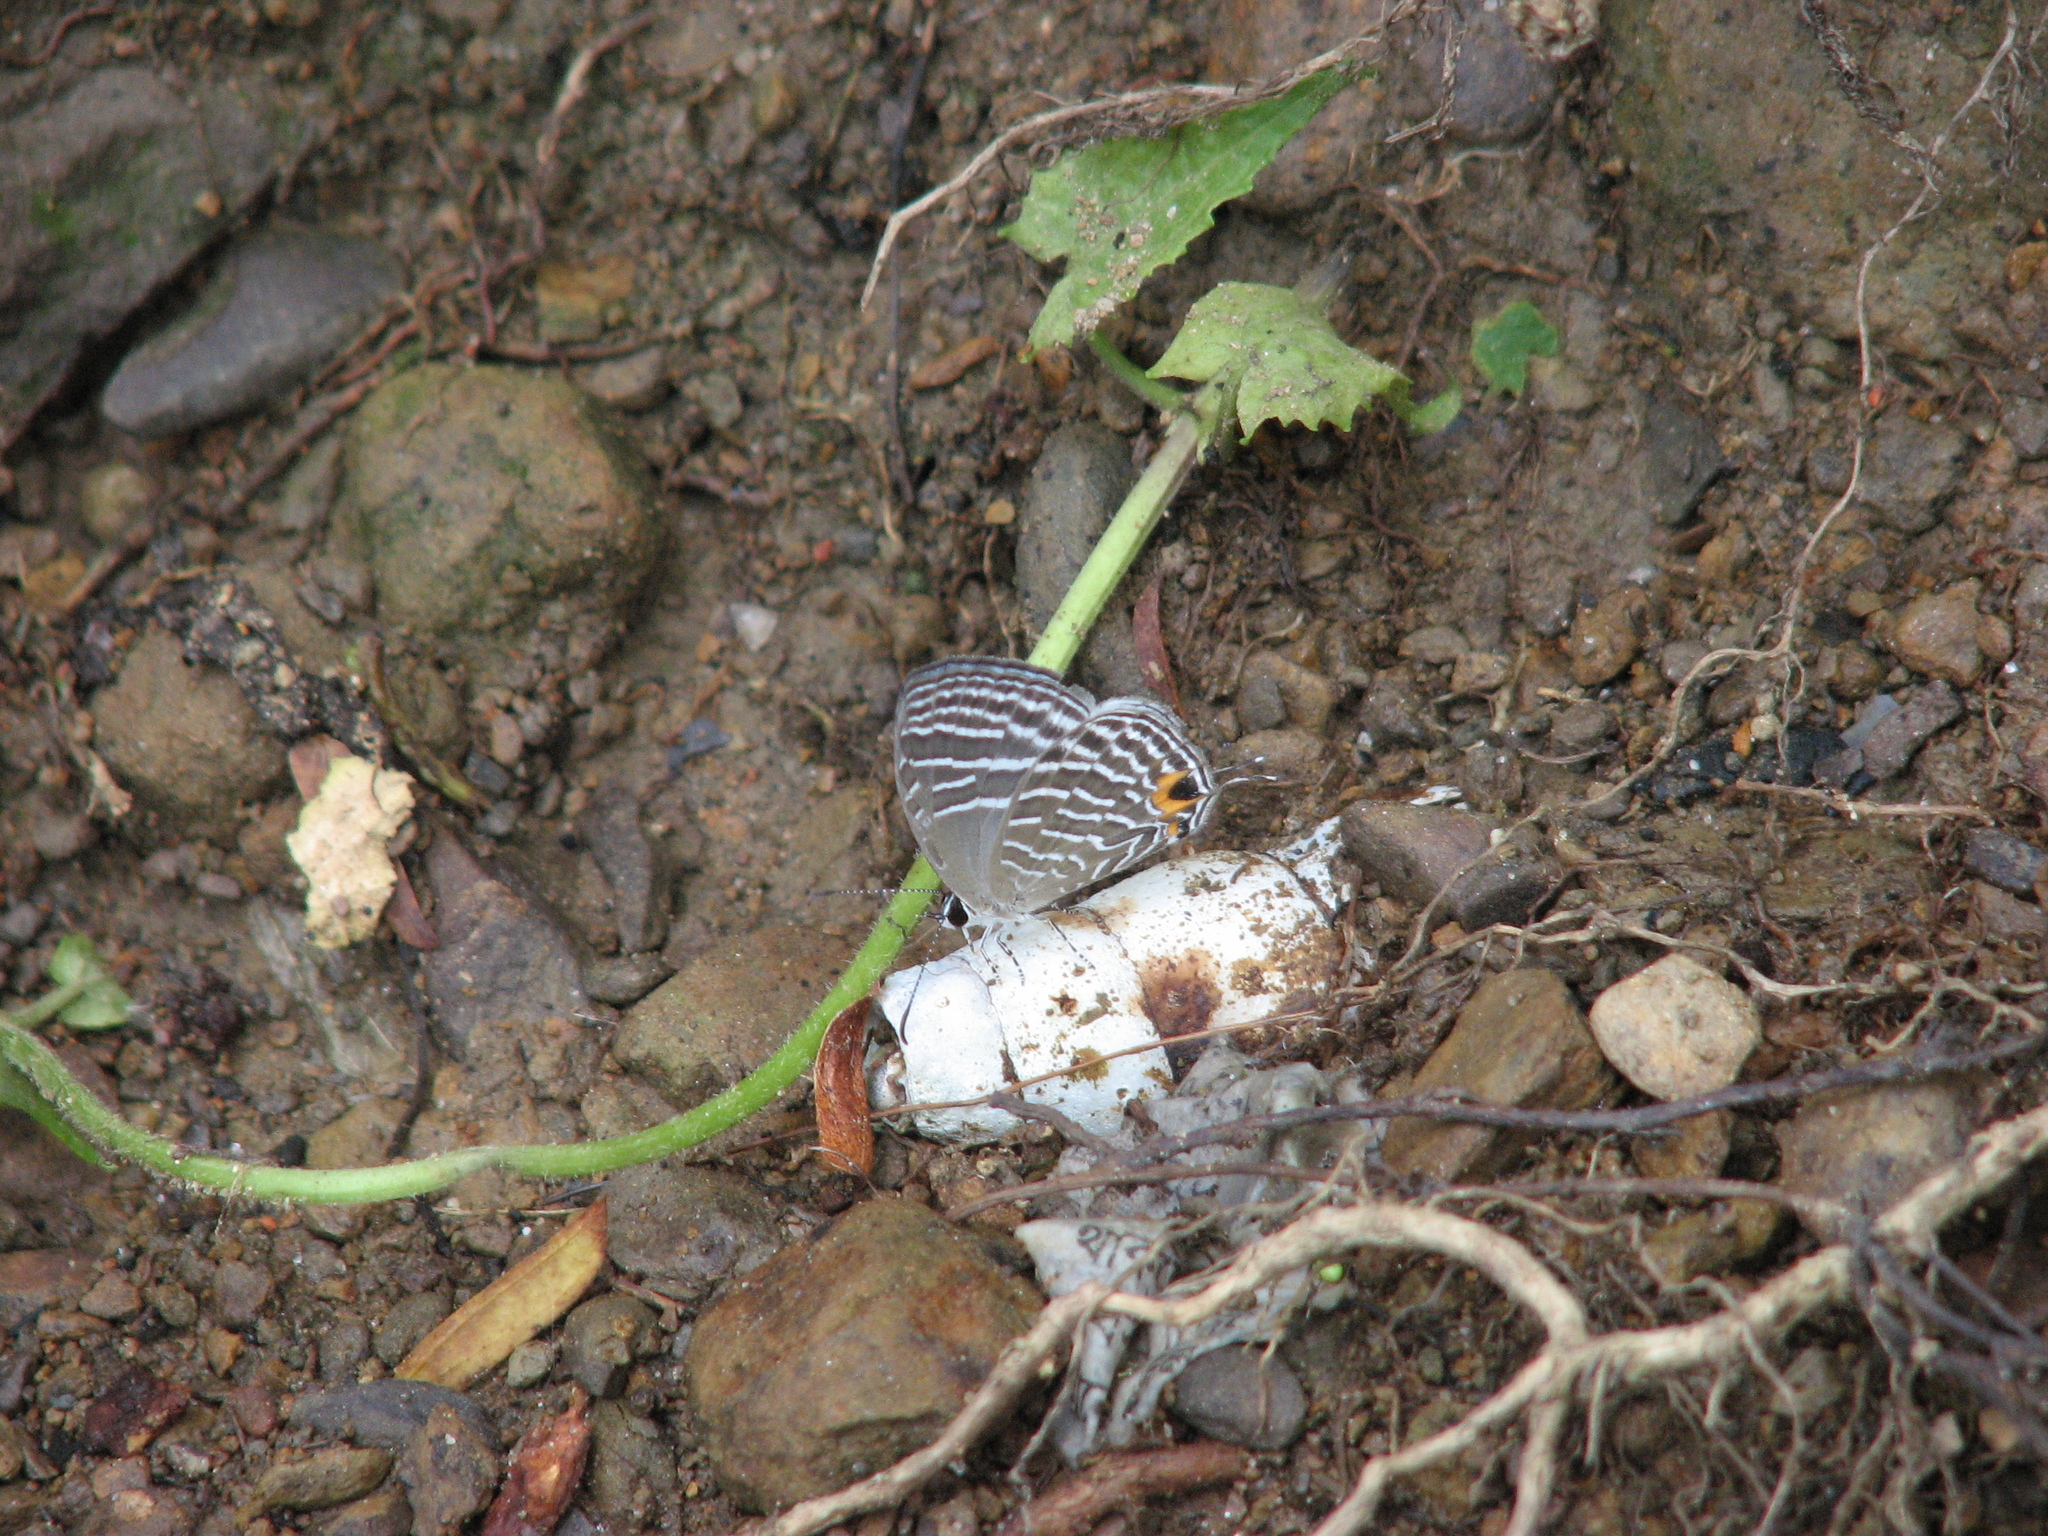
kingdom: Animalia
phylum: Arthropoda
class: Insecta
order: Lepidoptera
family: Lycaenidae
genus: Jamides
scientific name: Jamides celeno
